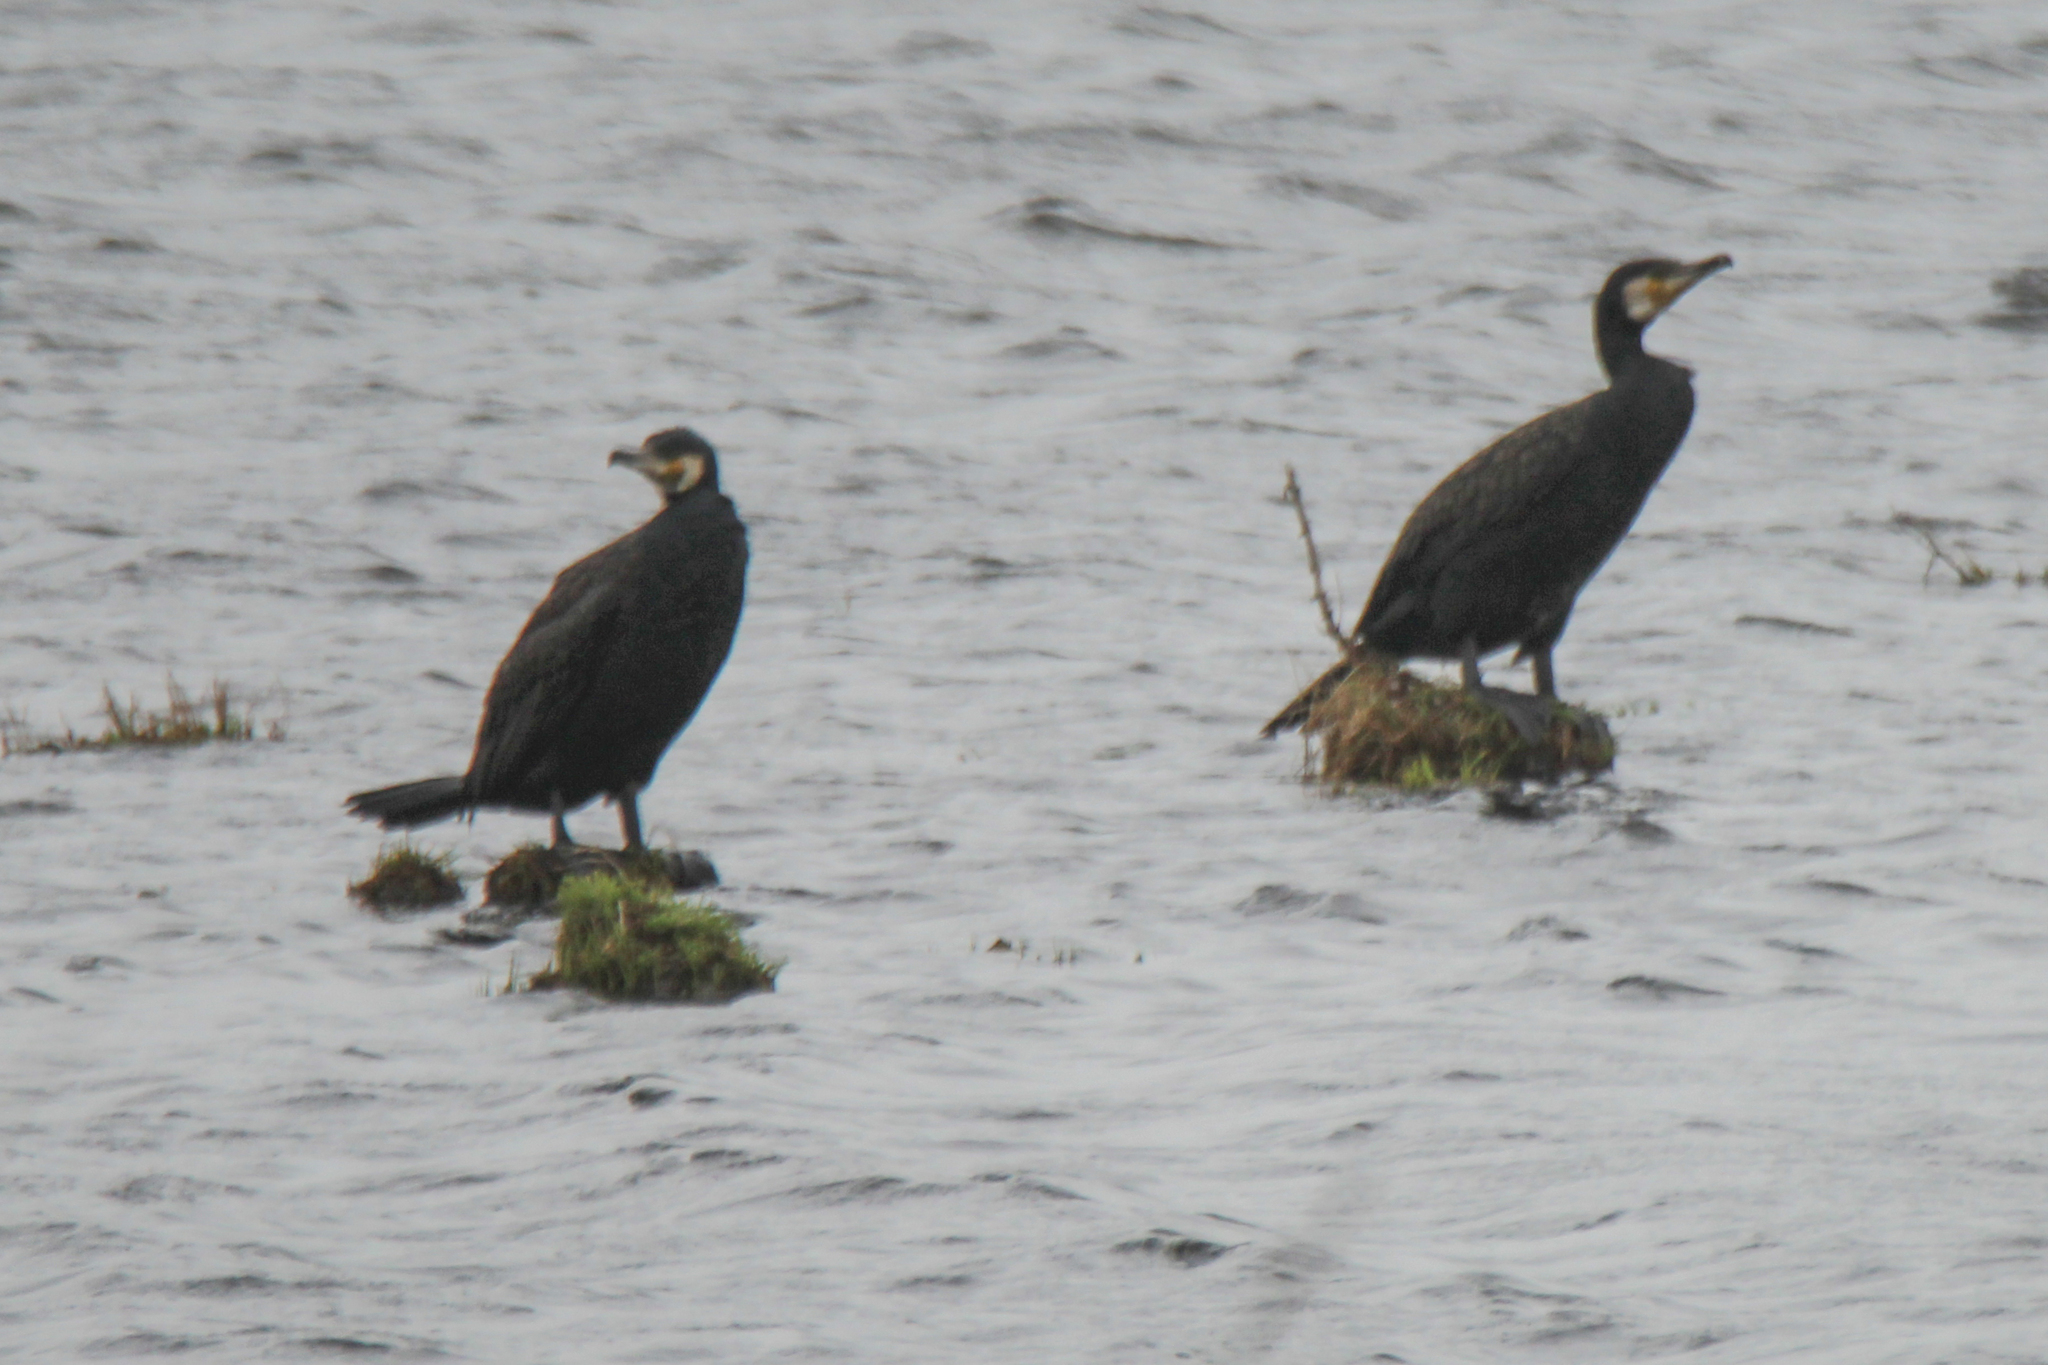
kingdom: Animalia
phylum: Chordata
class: Aves
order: Suliformes
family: Phalacrocoracidae
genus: Phalacrocorax
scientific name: Phalacrocorax carbo
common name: Great cormorant
